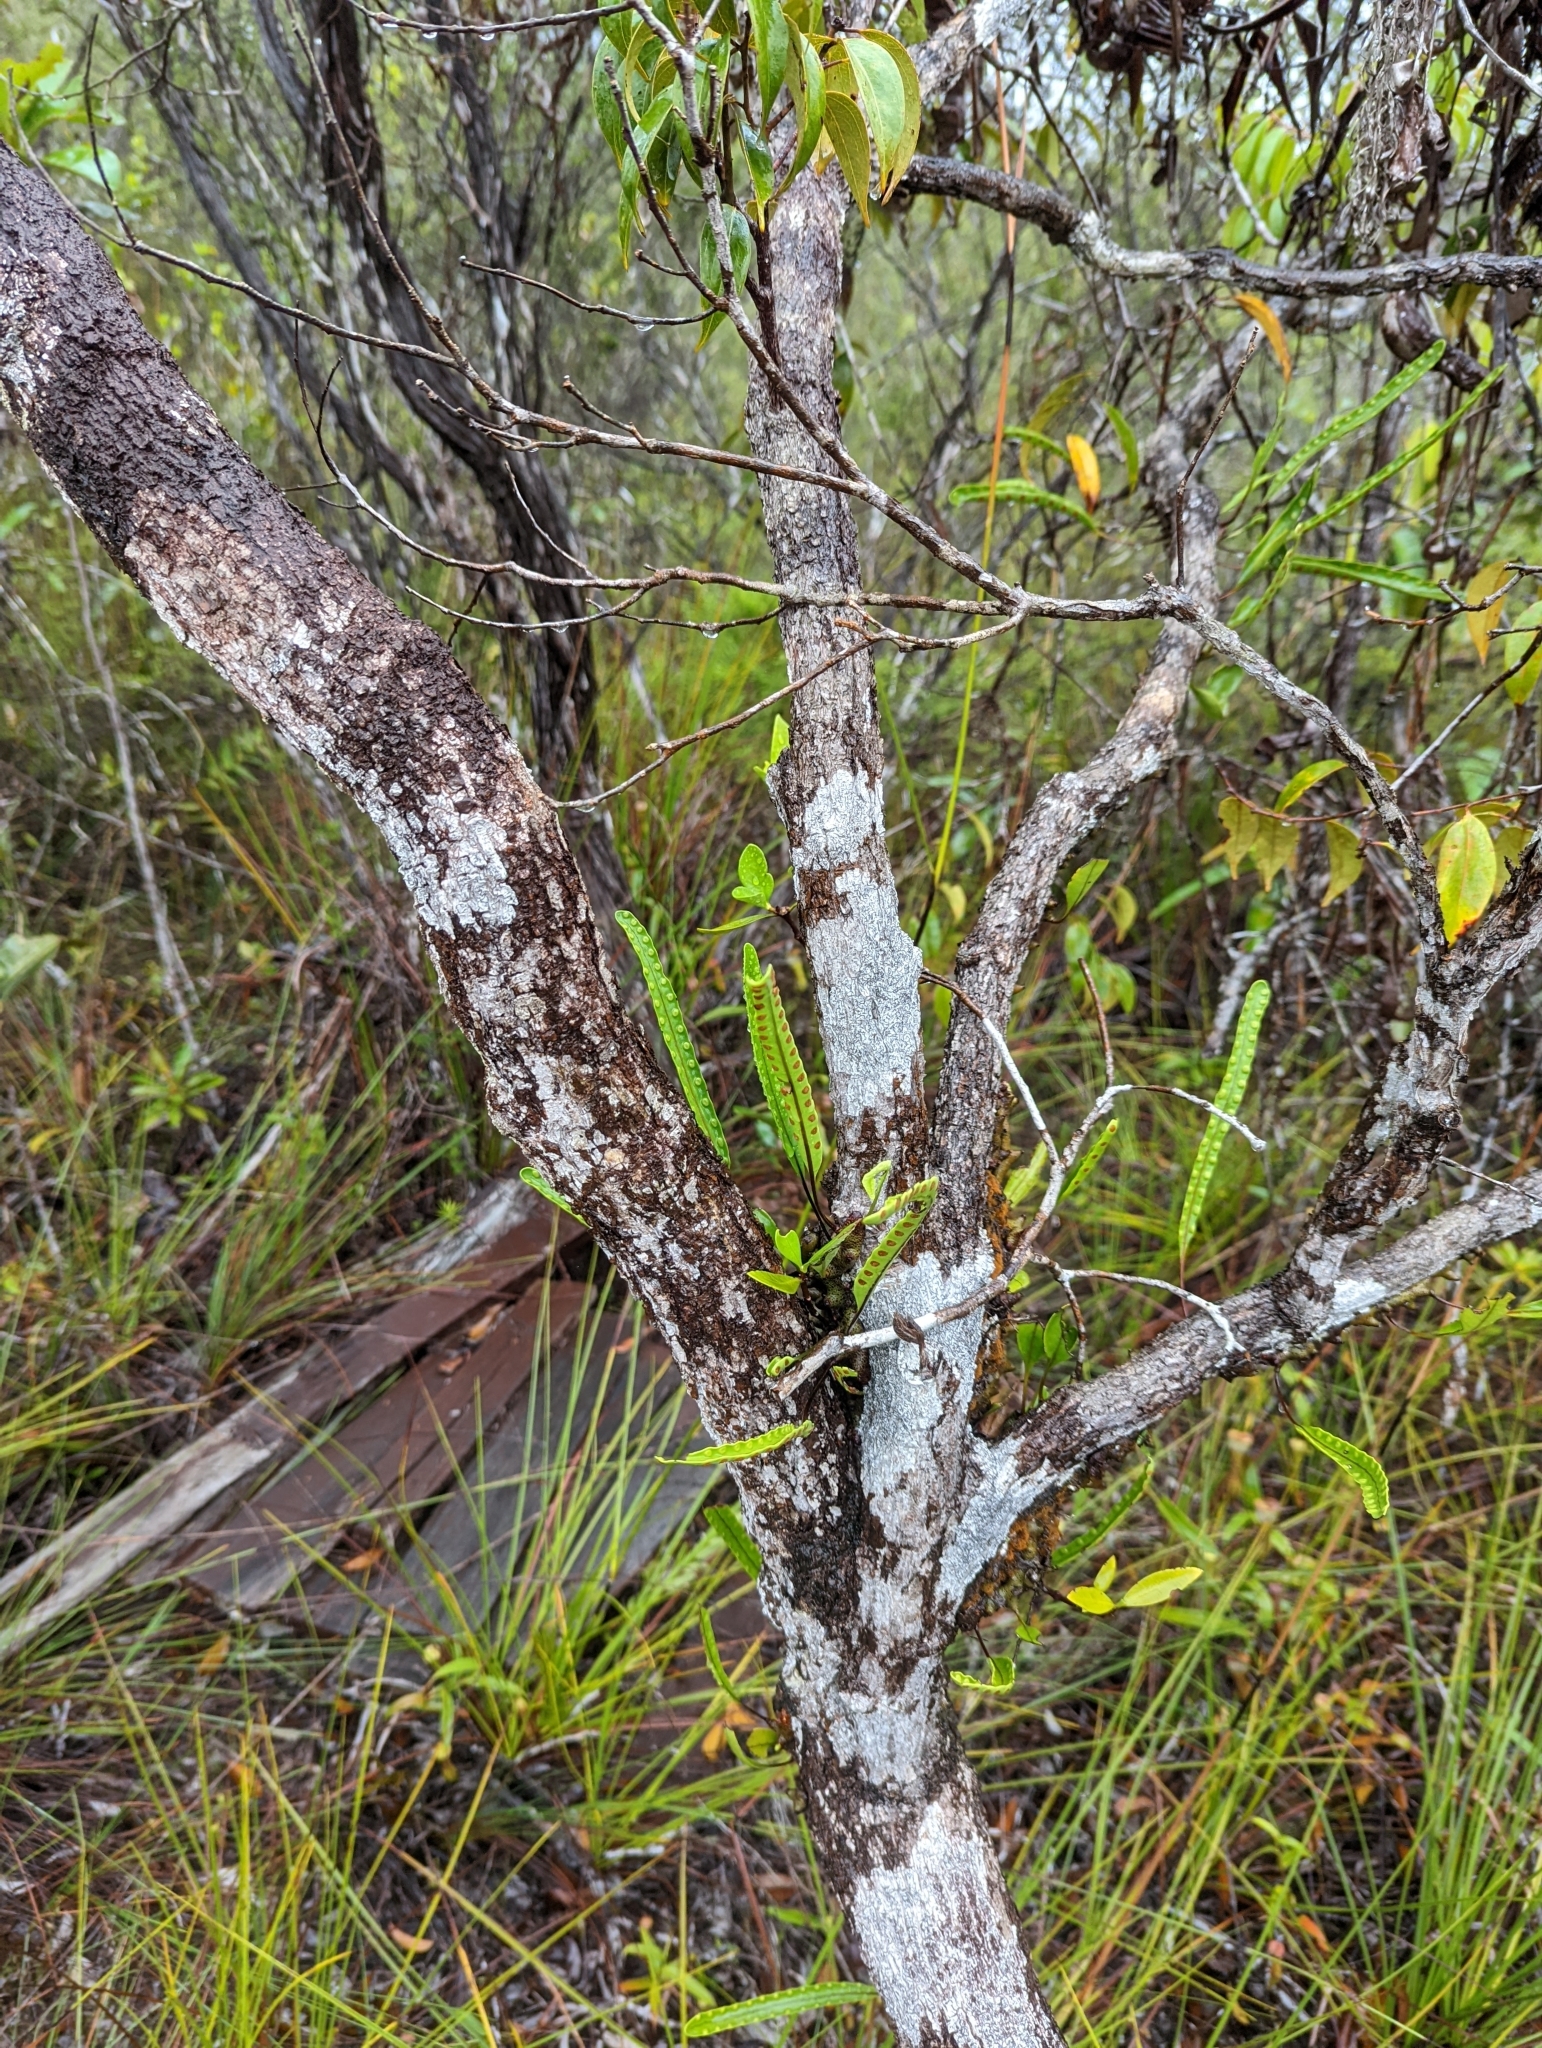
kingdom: Plantae
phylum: Tracheophyta
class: Polypodiopsida
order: Polypodiales
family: Polypodiaceae
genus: Lecanopteris
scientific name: Lecanopteris sinuosa
